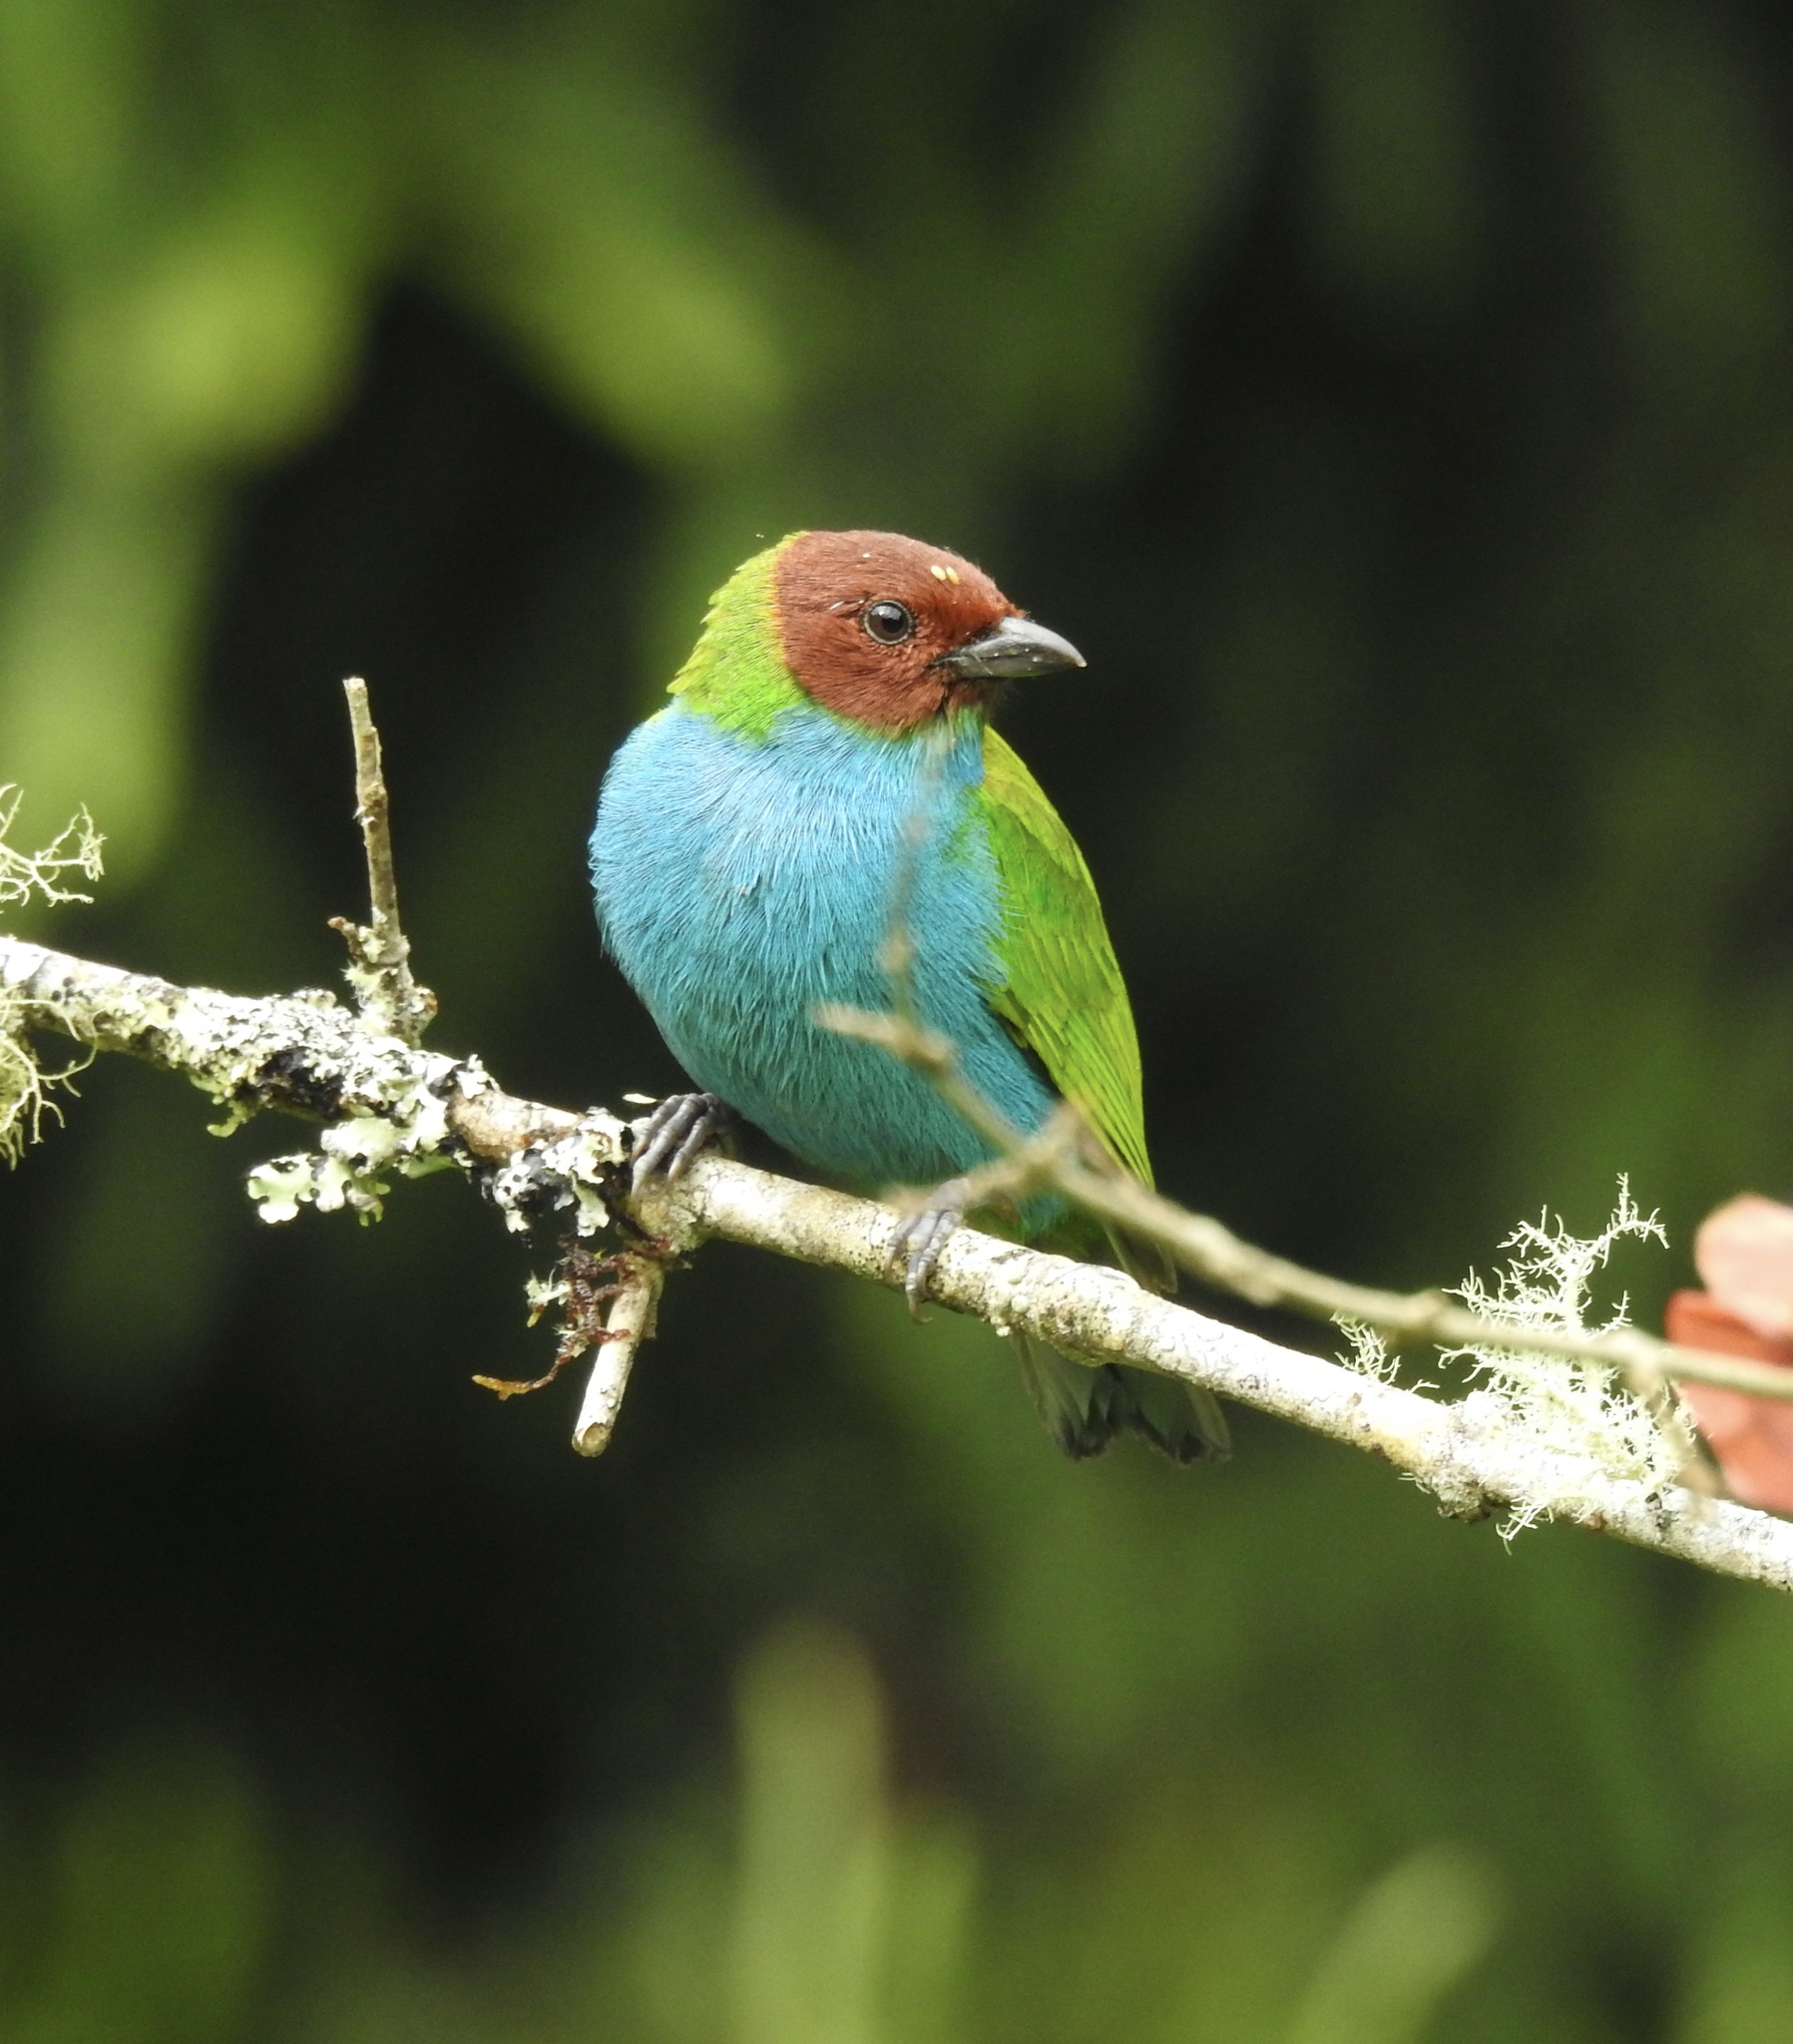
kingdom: Animalia
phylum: Chordata
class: Aves
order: Passeriformes
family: Thraupidae
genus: Tangara
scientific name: Tangara gyrola
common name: Bay-headed tanager
